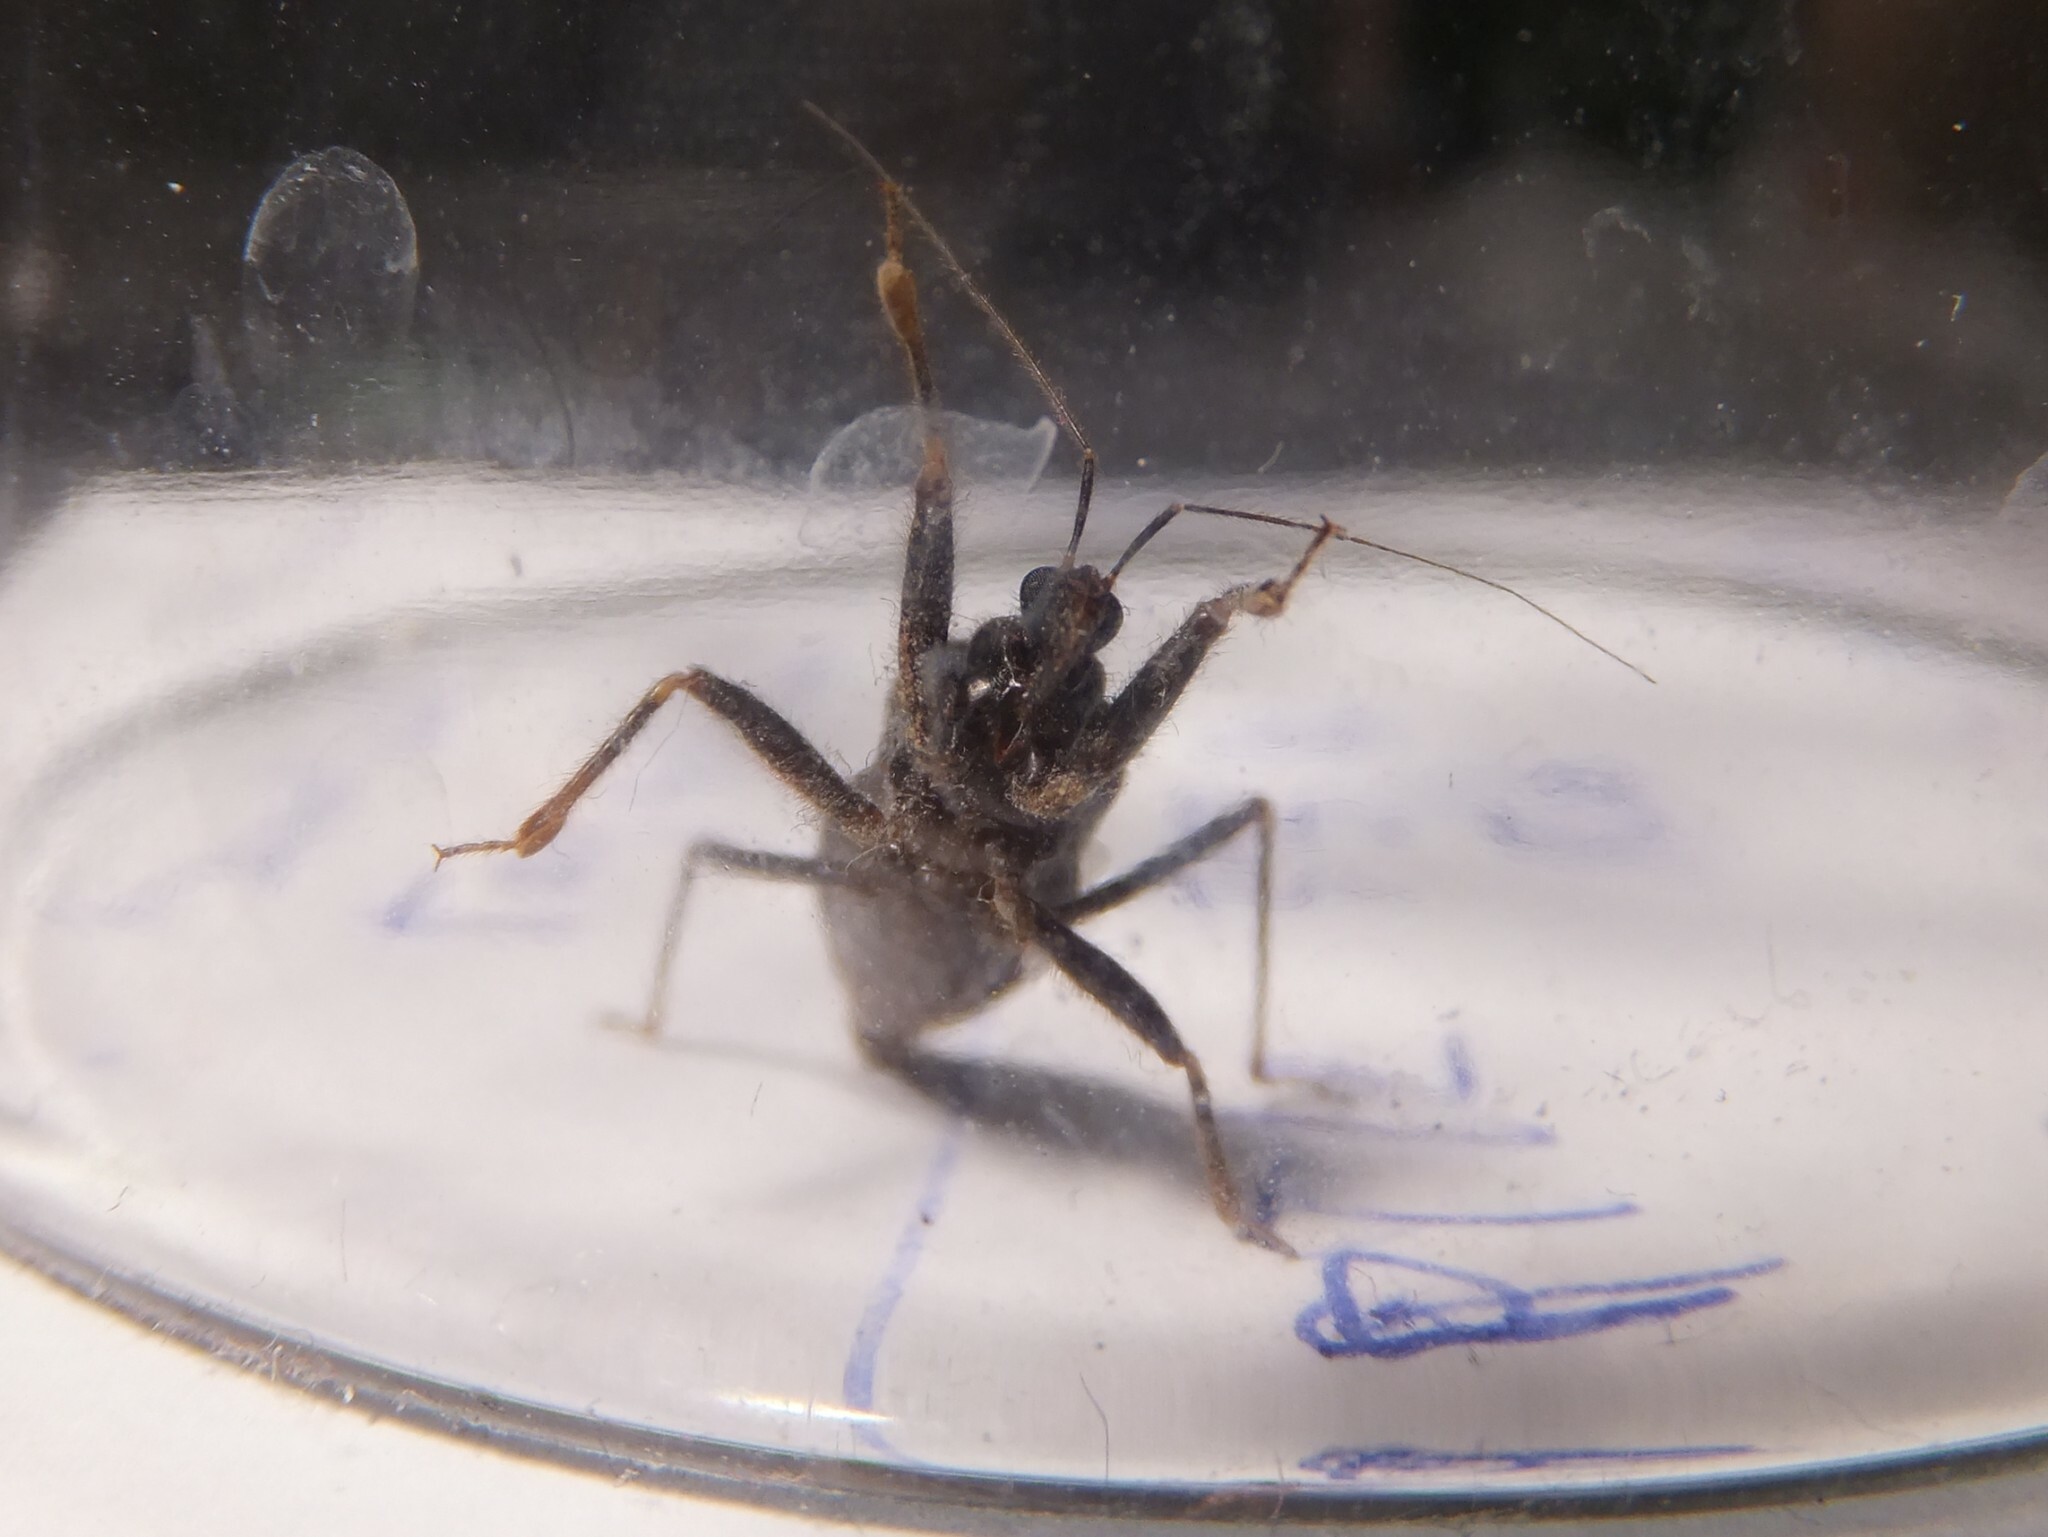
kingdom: Animalia
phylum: Arthropoda
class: Insecta
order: Hemiptera
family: Reduviidae
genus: Reduvius
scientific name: Reduvius personatus
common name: Masked hunter
